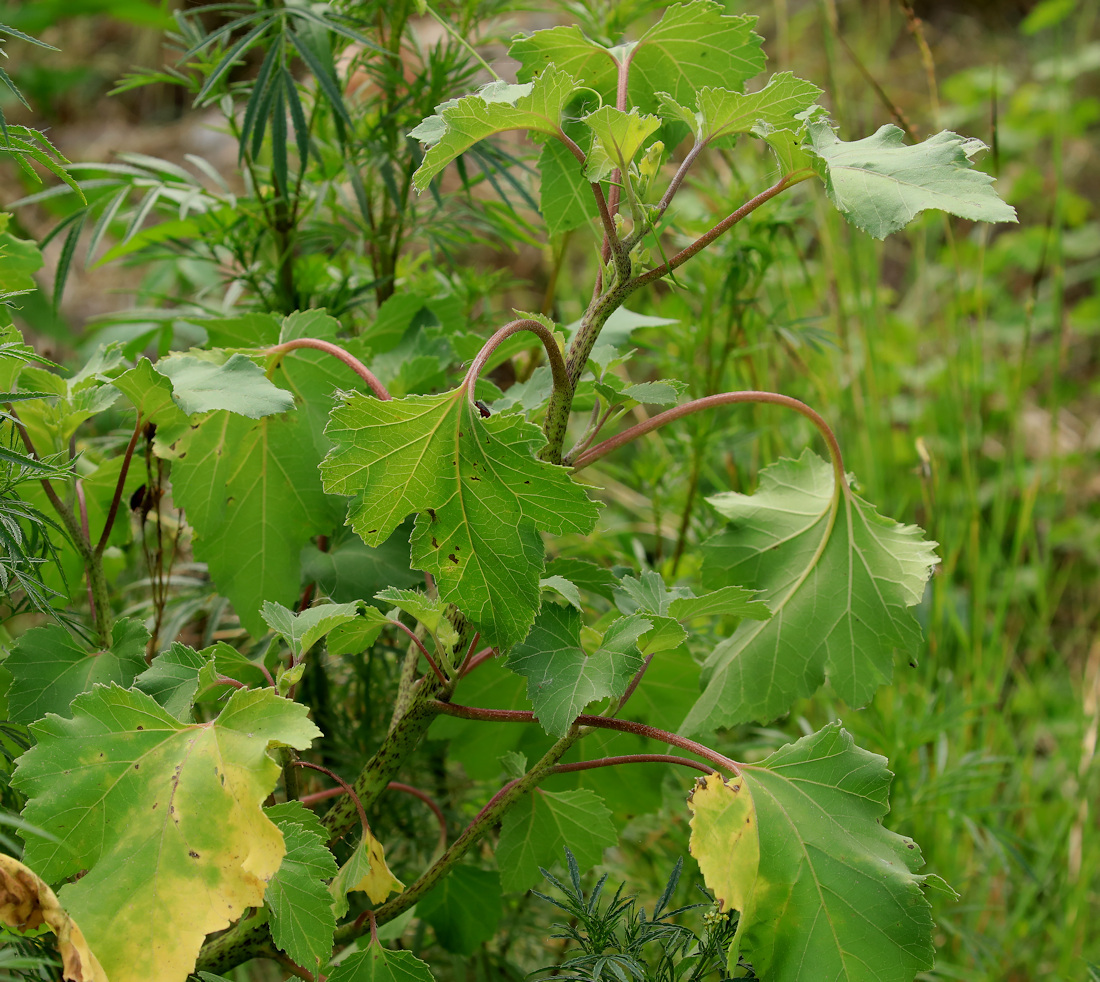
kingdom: Plantae
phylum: Tracheophyta
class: Magnoliopsida
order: Asterales
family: Asteraceae
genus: Xanthium
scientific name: Xanthium strumarium
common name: Rough cocklebur
